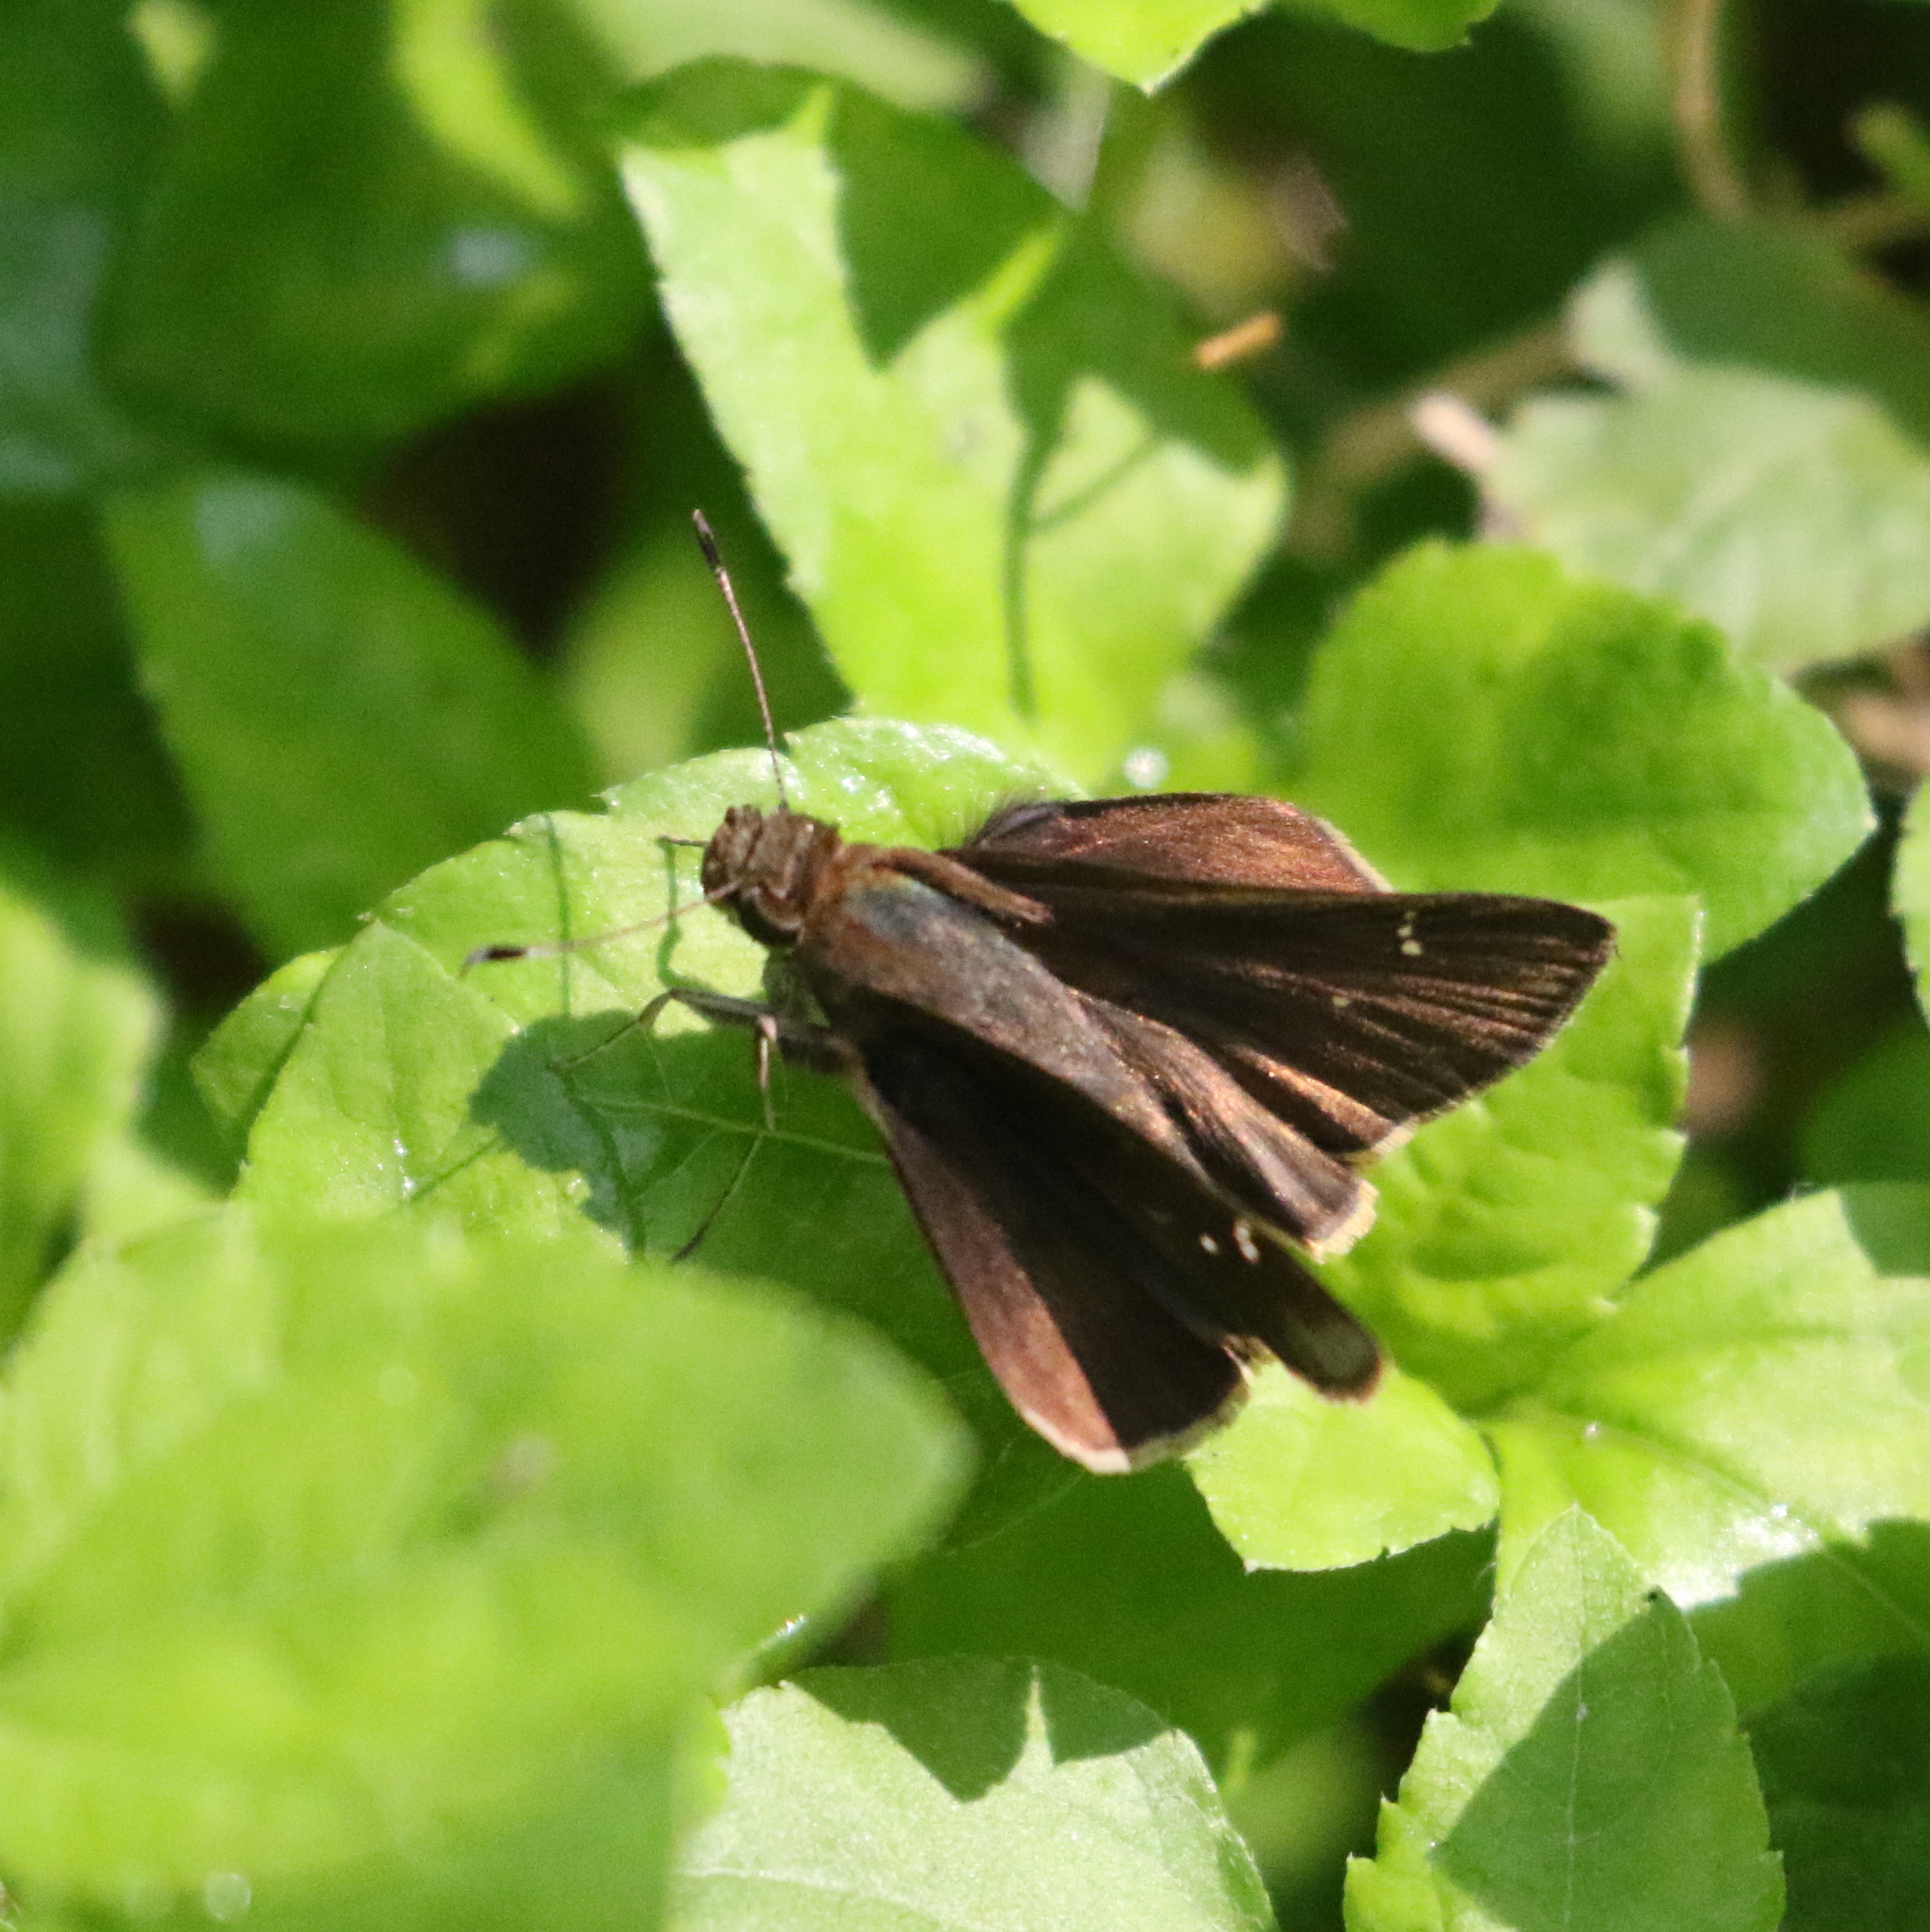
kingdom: Animalia
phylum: Arthropoda
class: Insecta
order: Lepidoptera
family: Hesperiidae
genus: Lerema
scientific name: Lerema accius
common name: Clouded skipper
